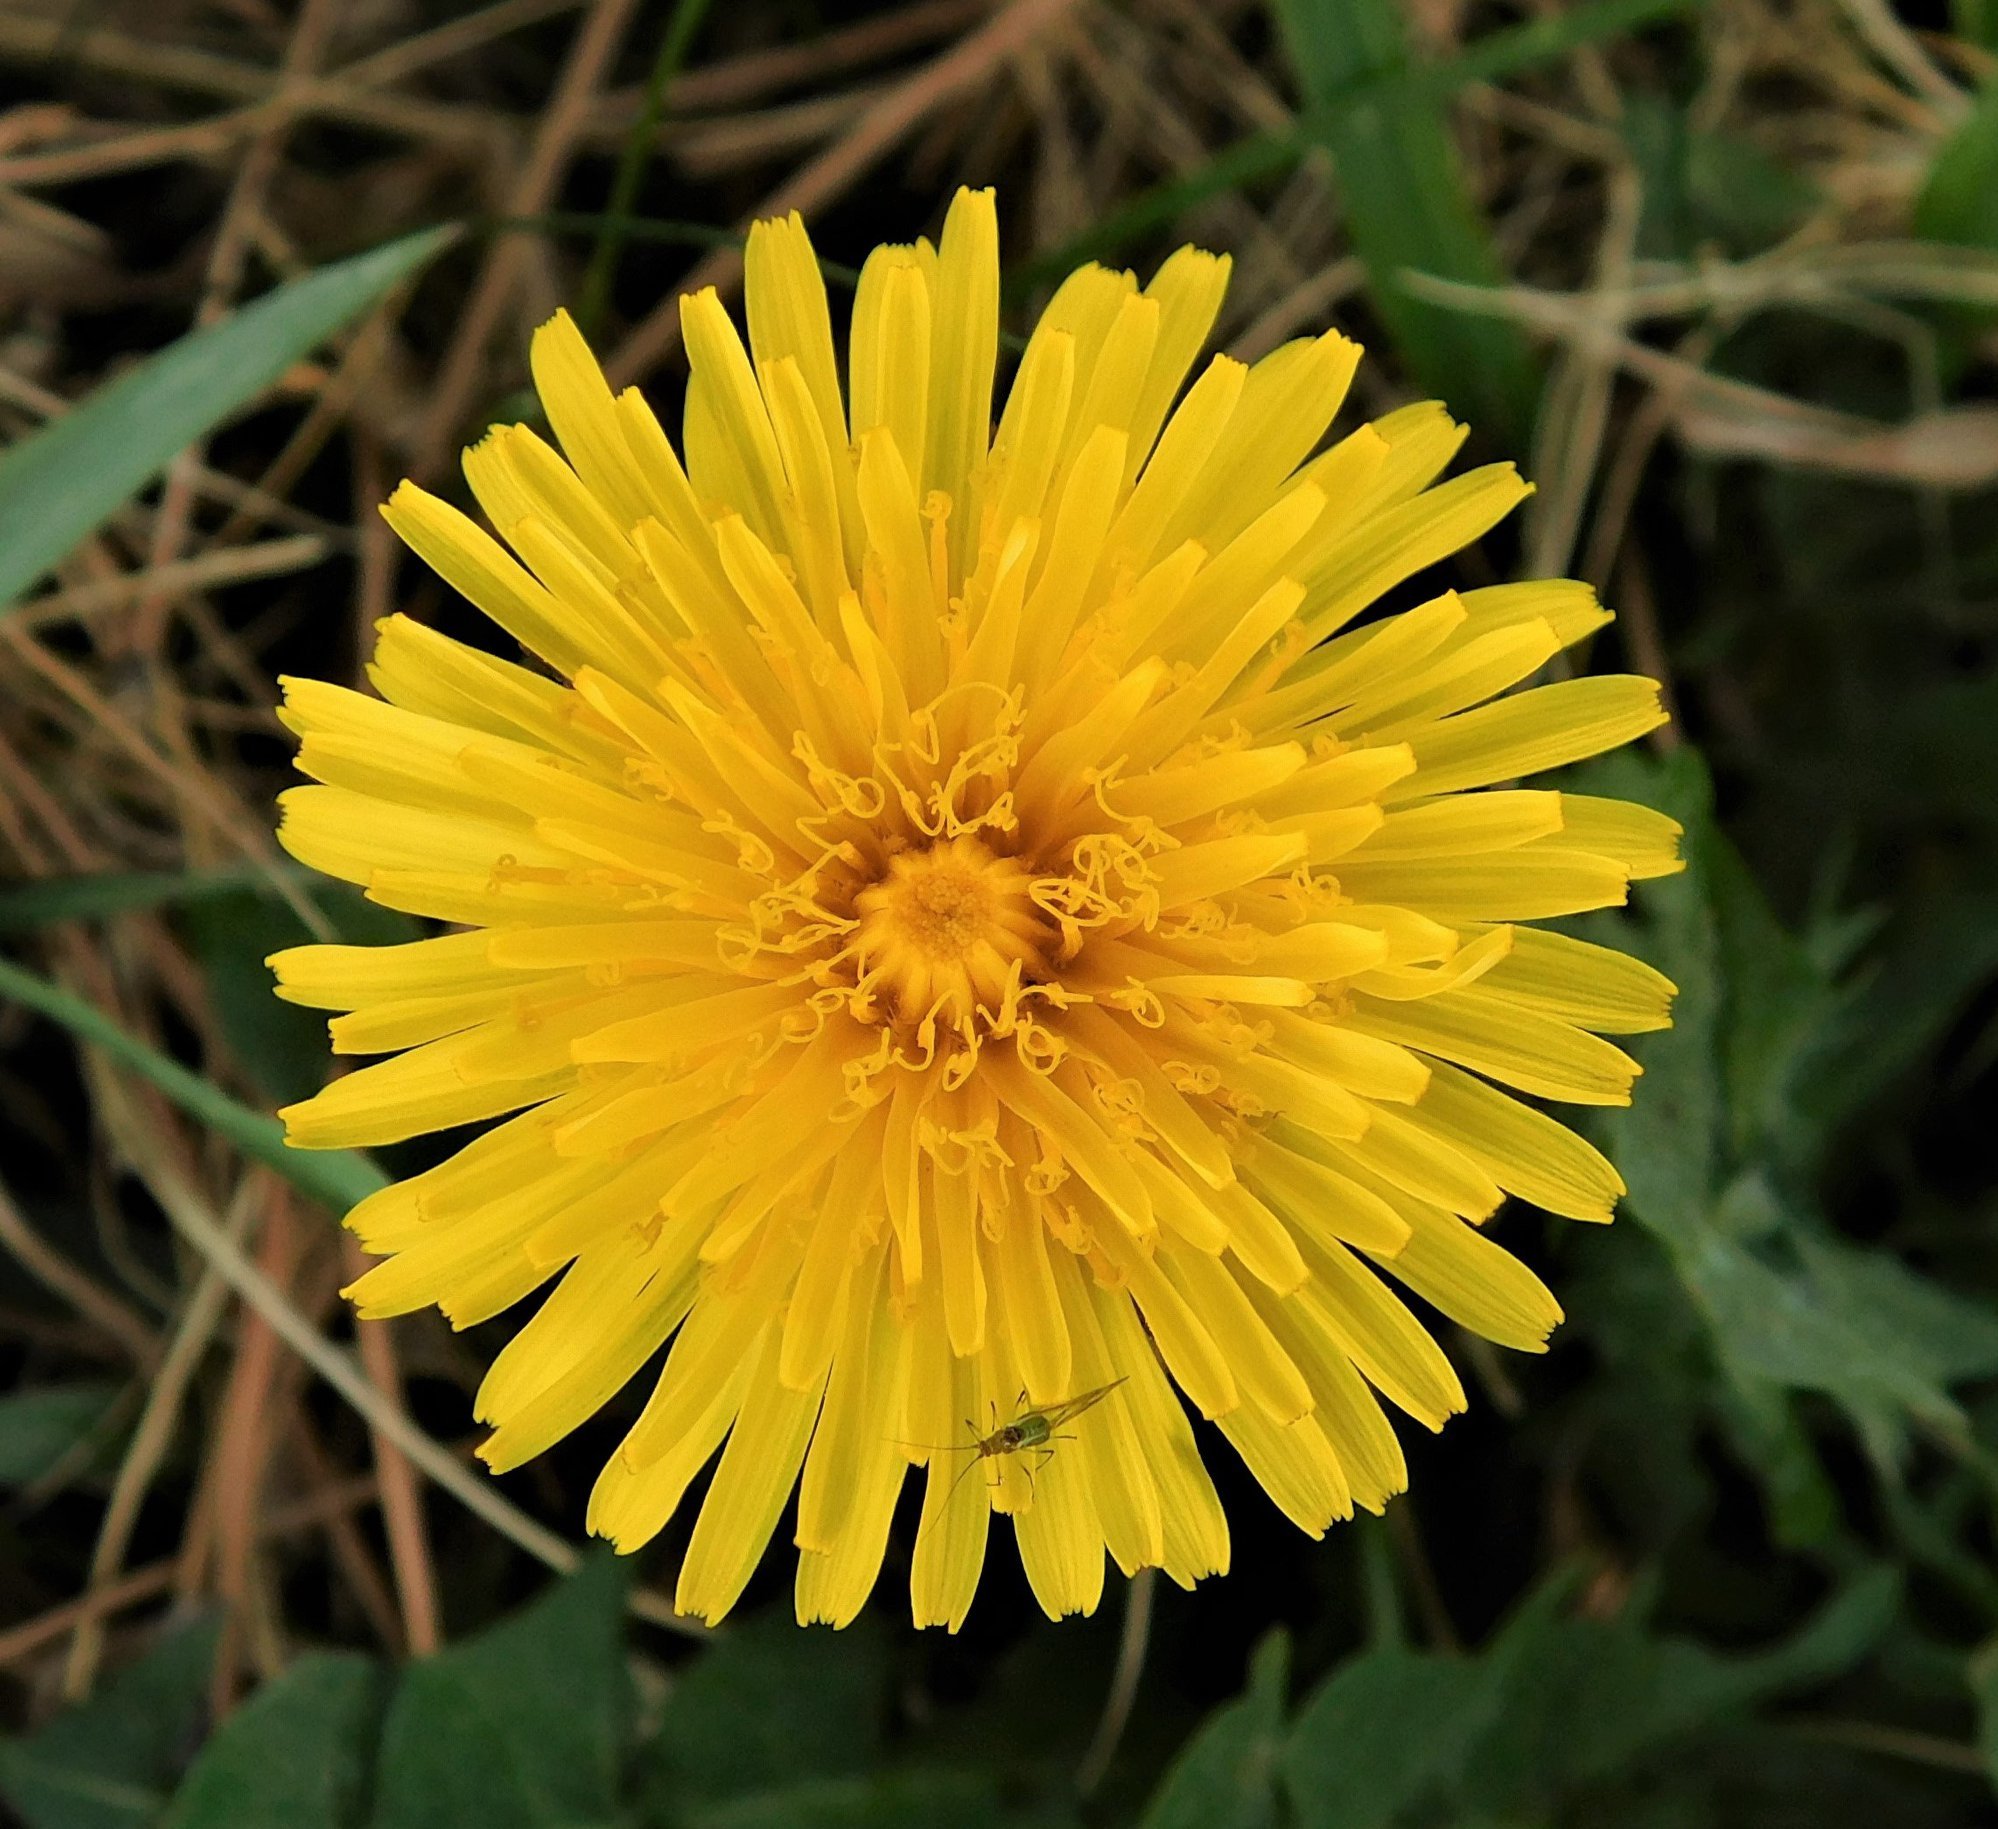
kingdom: Plantae
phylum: Tracheophyta
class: Magnoliopsida
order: Asterales
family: Asteraceae
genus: Taraxacum
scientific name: Taraxacum officinale
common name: Common dandelion
